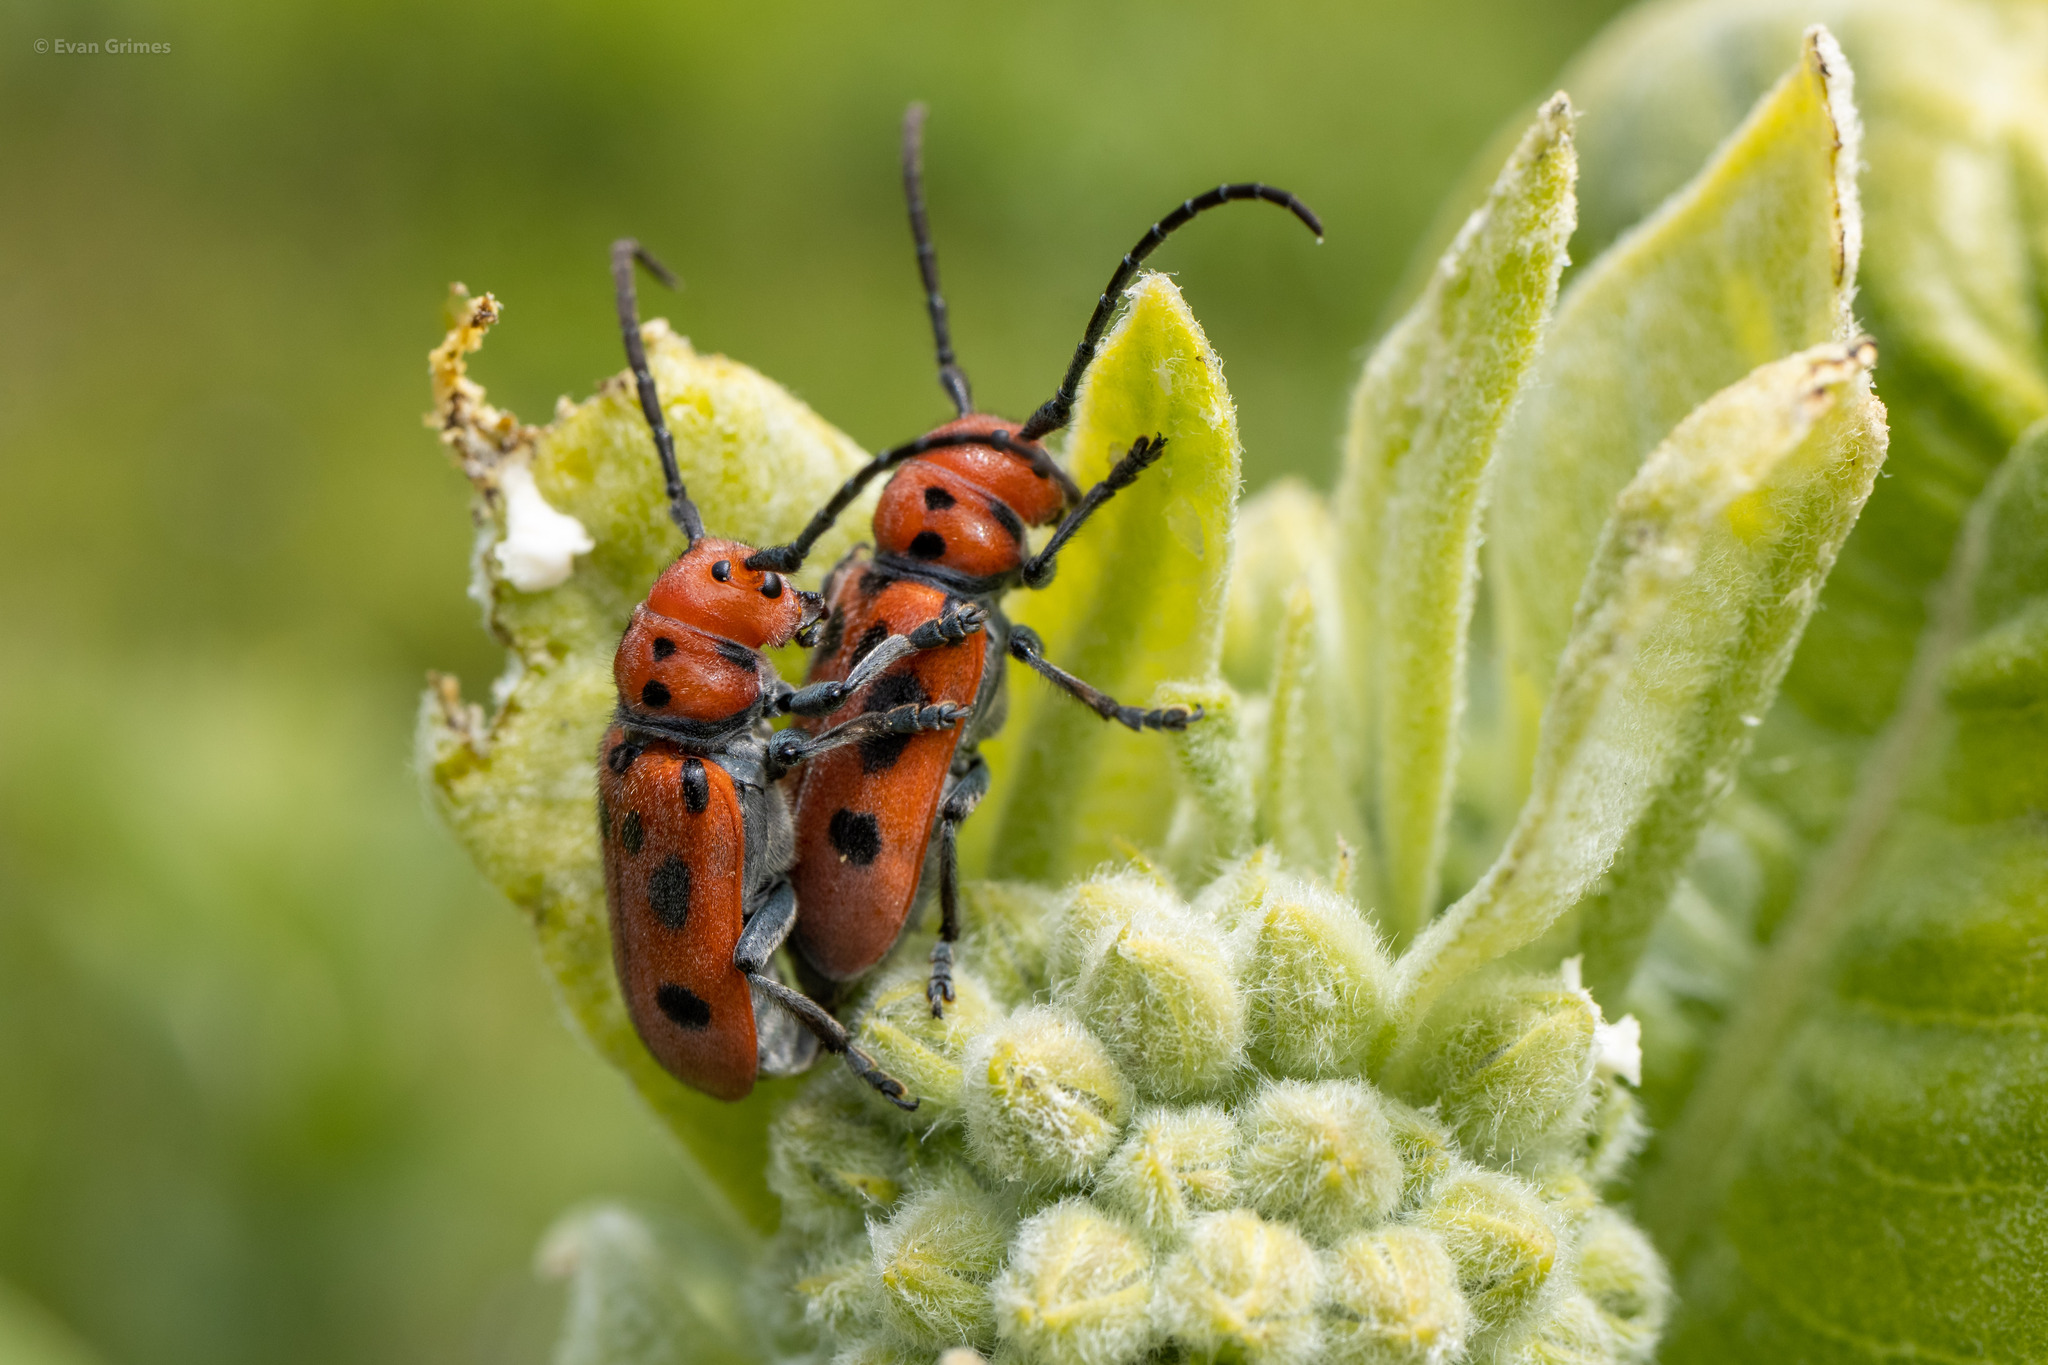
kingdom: Animalia
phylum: Arthropoda
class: Insecta
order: Coleoptera
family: Cerambycidae
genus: Tetraopes
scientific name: Tetraopes tetrophthalmus
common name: Red milkweed beetle
